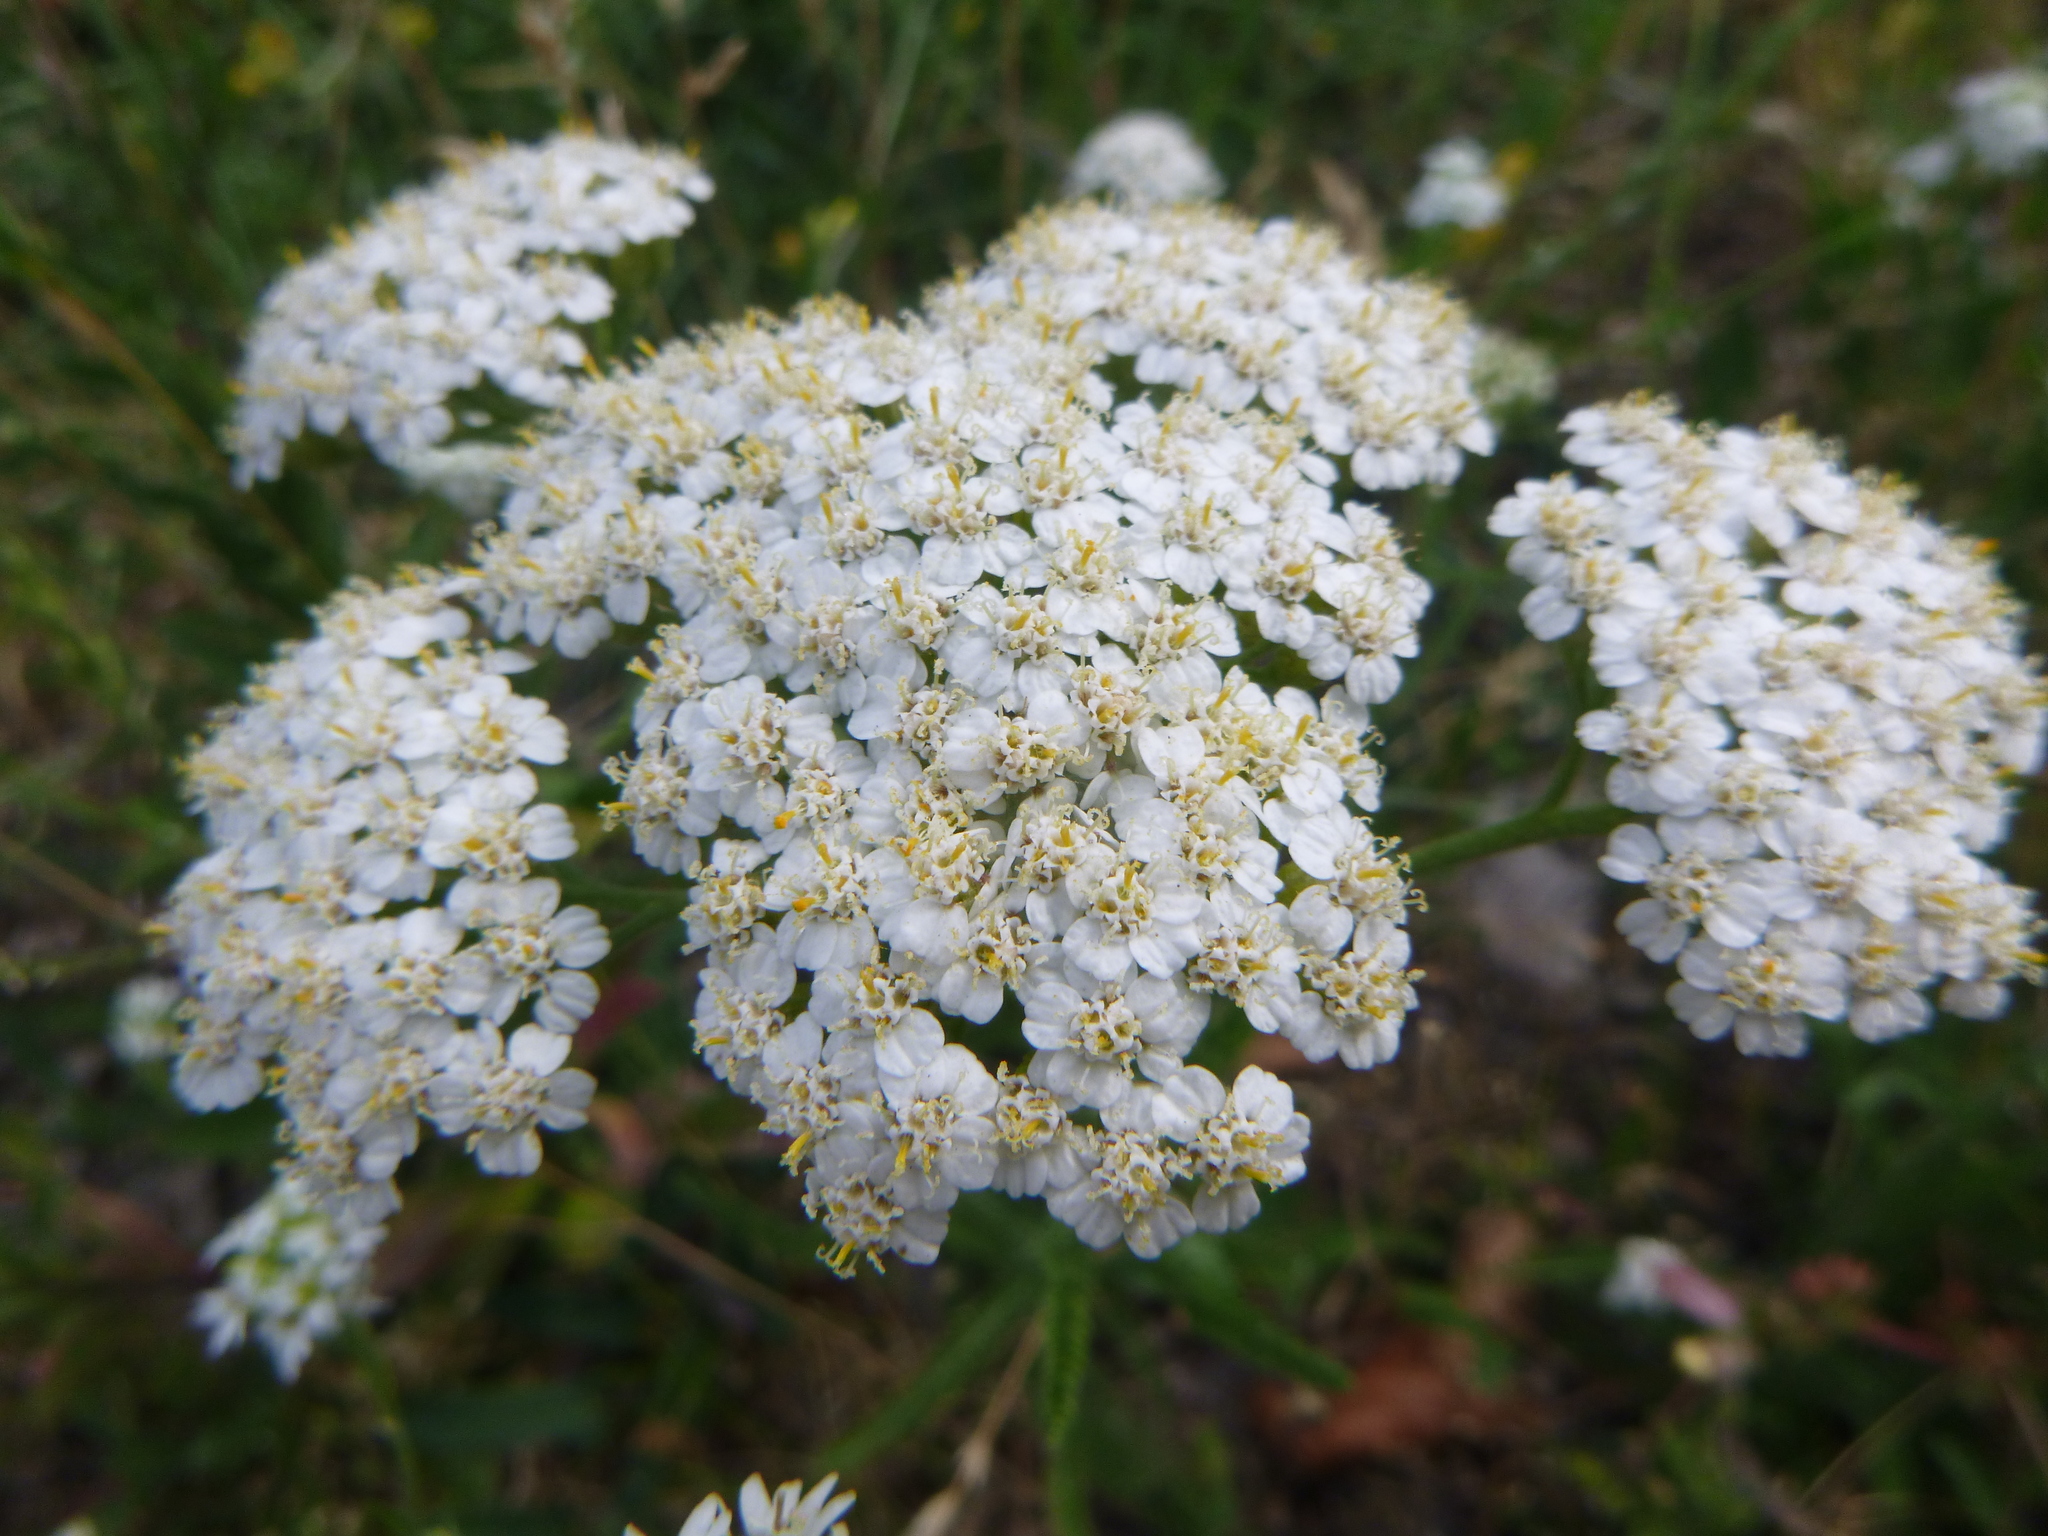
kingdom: Plantae
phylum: Tracheophyta
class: Magnoliopsida
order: Asterales
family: Asteraceae
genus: Achillea
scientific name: Achillea millefolium
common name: Yarrow
